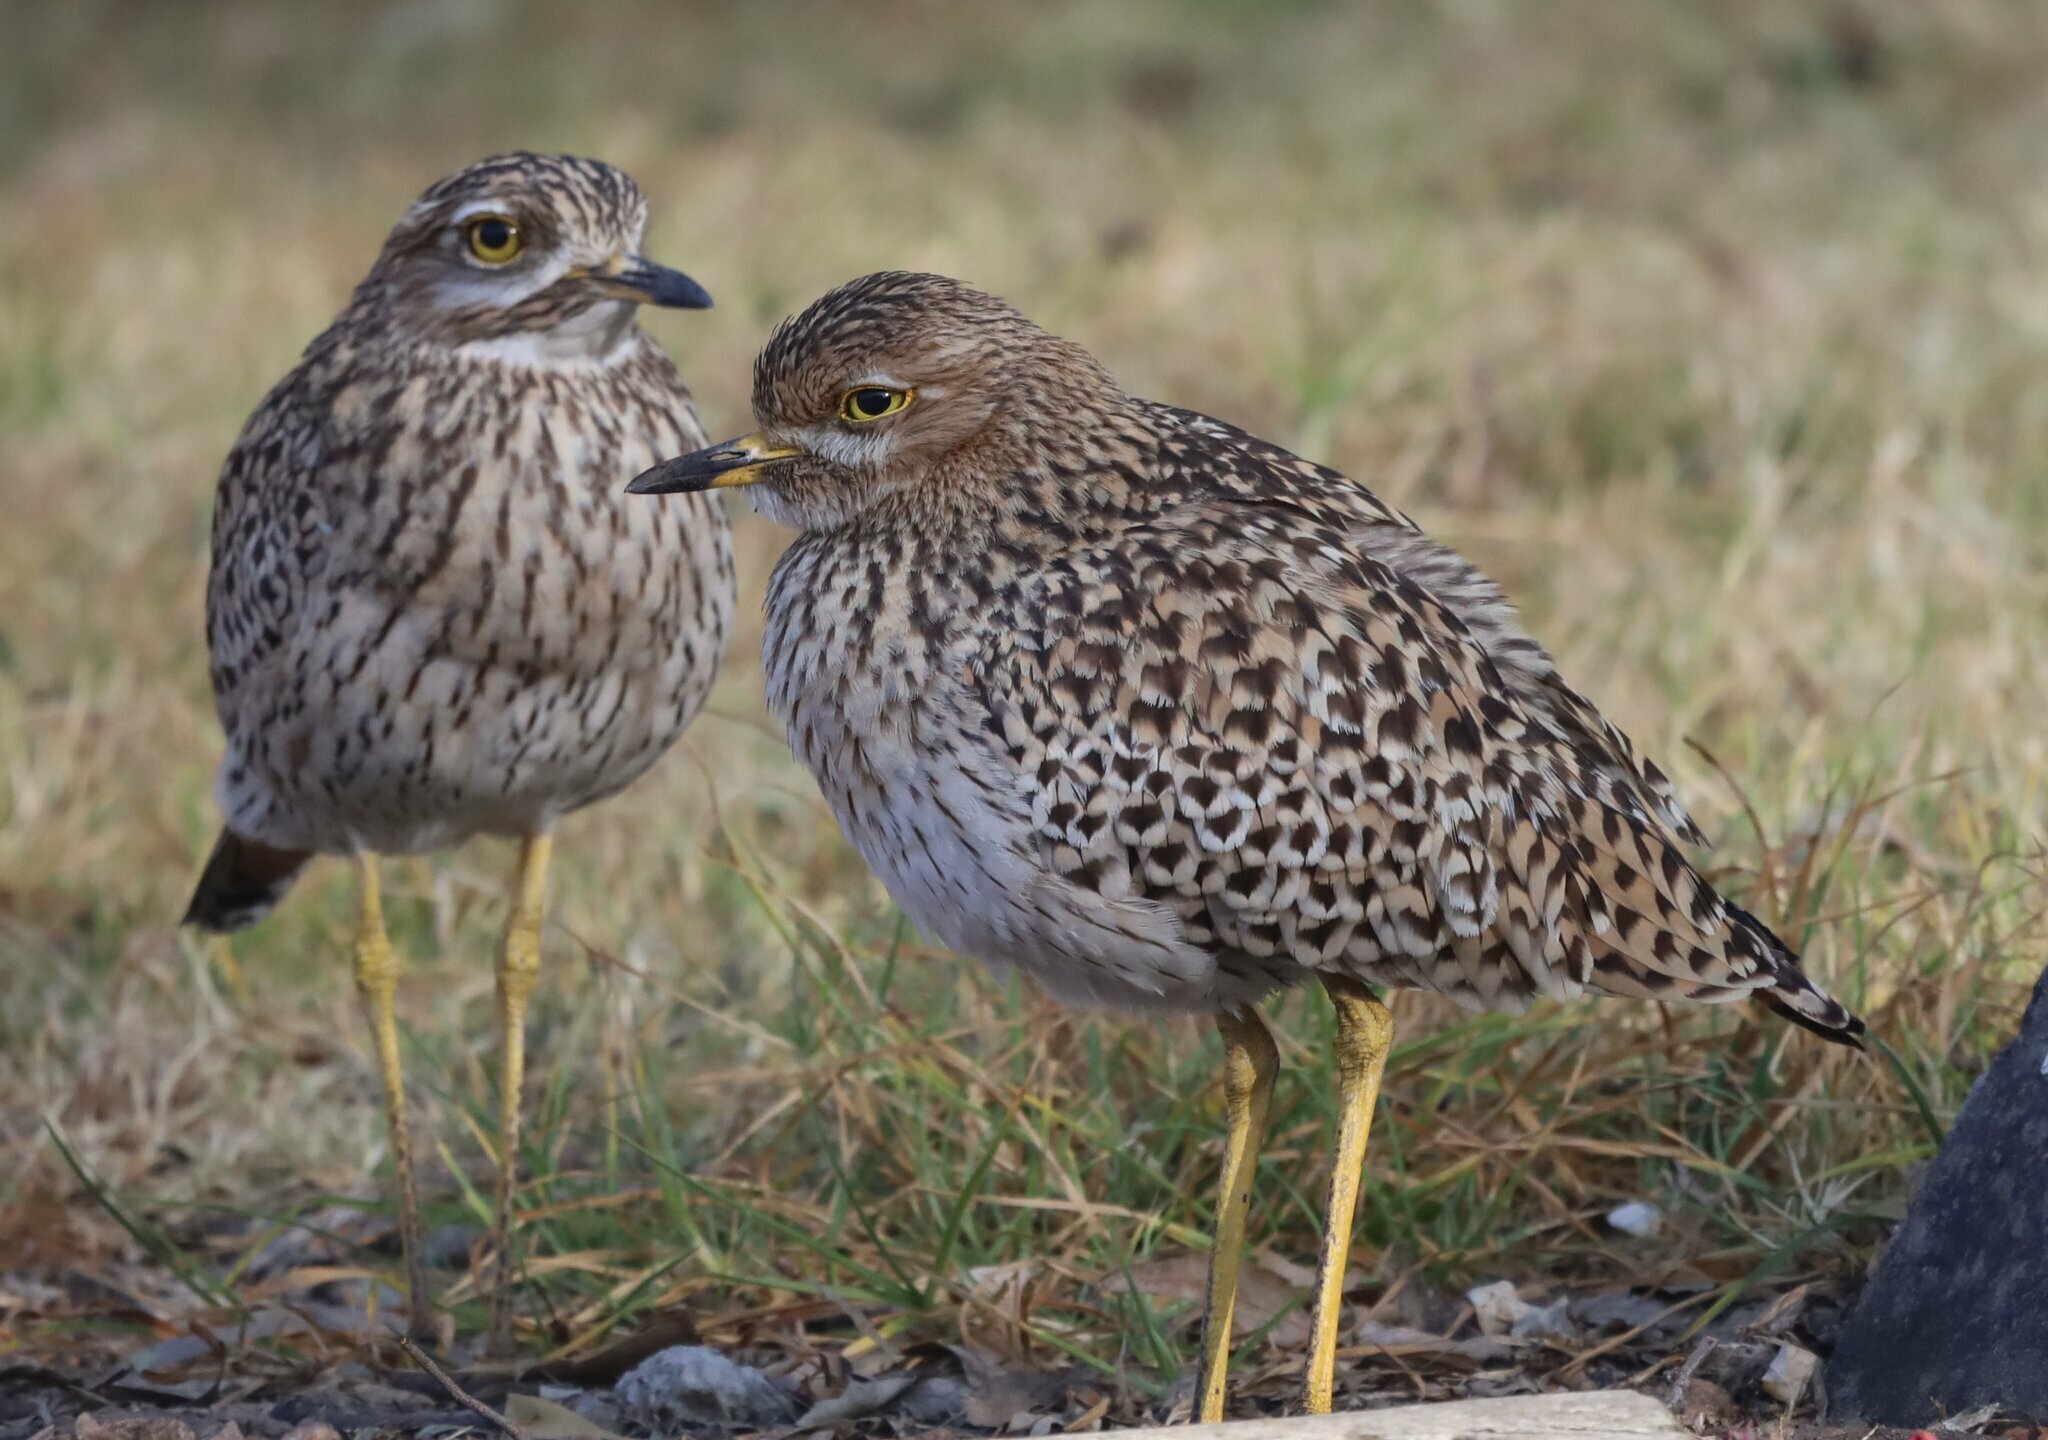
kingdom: Animalia
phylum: Chordata
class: Aves
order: Charadriiformes
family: Burhinidae
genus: Burhinus
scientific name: Burhinus capensis
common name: Spotted thick-knee
